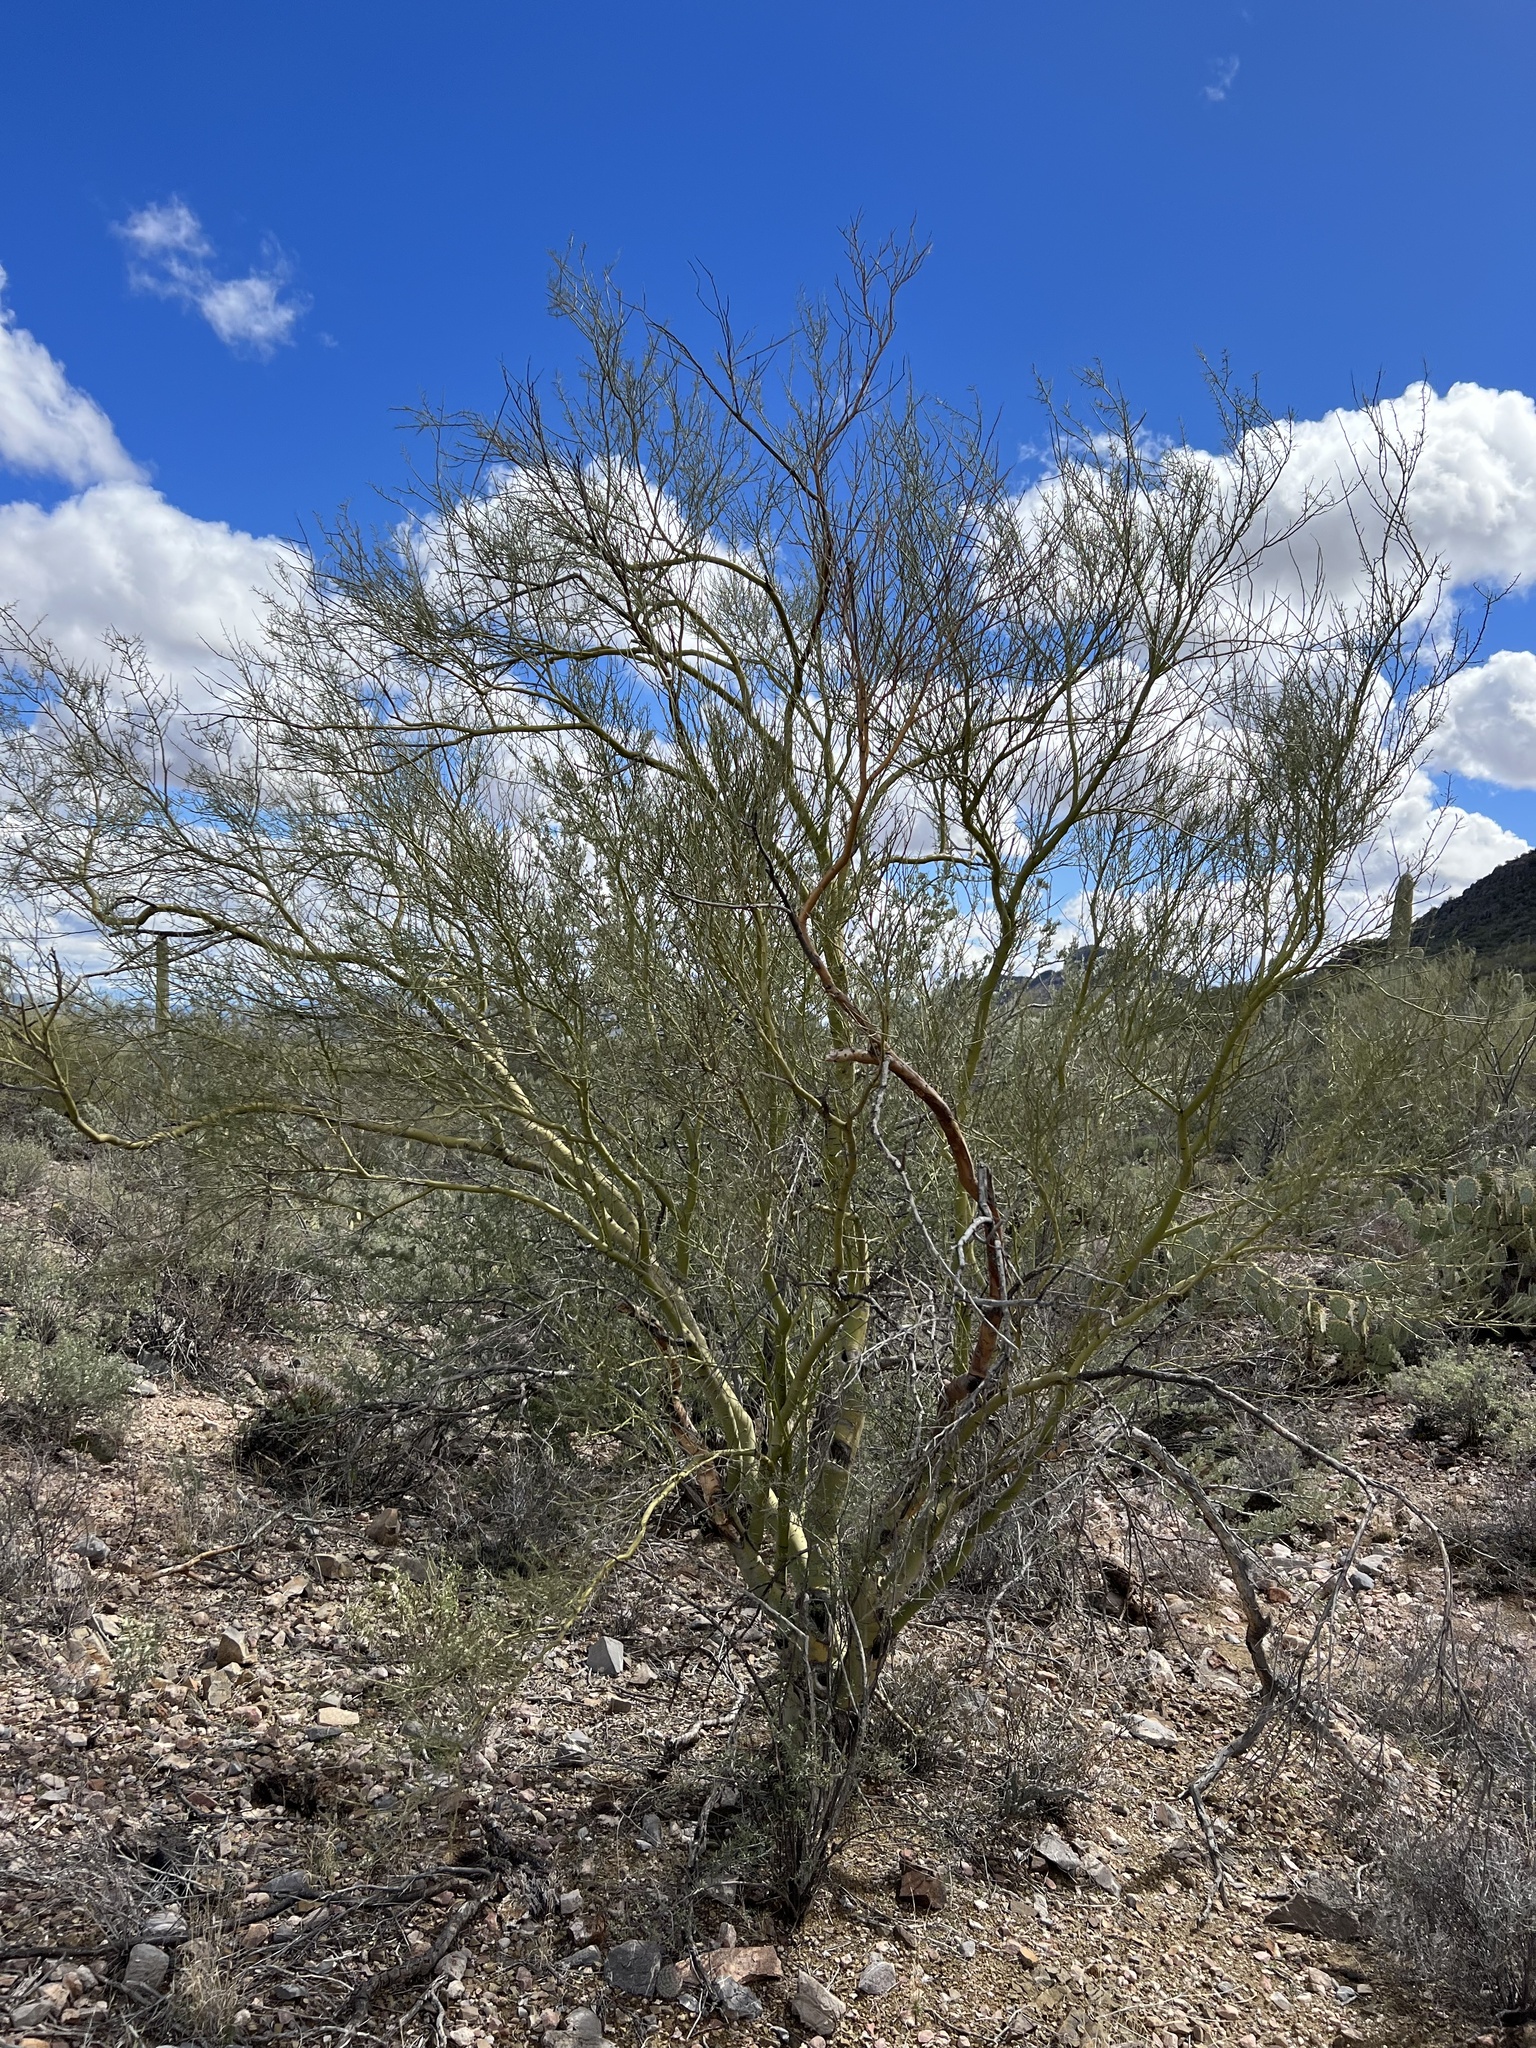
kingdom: Plantae
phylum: Tracheophyta
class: Magnoliopsida
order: Fabales
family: Fabaceae
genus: Parkinsonia
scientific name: Parkinsonia microphylla
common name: Yellow paloverde
